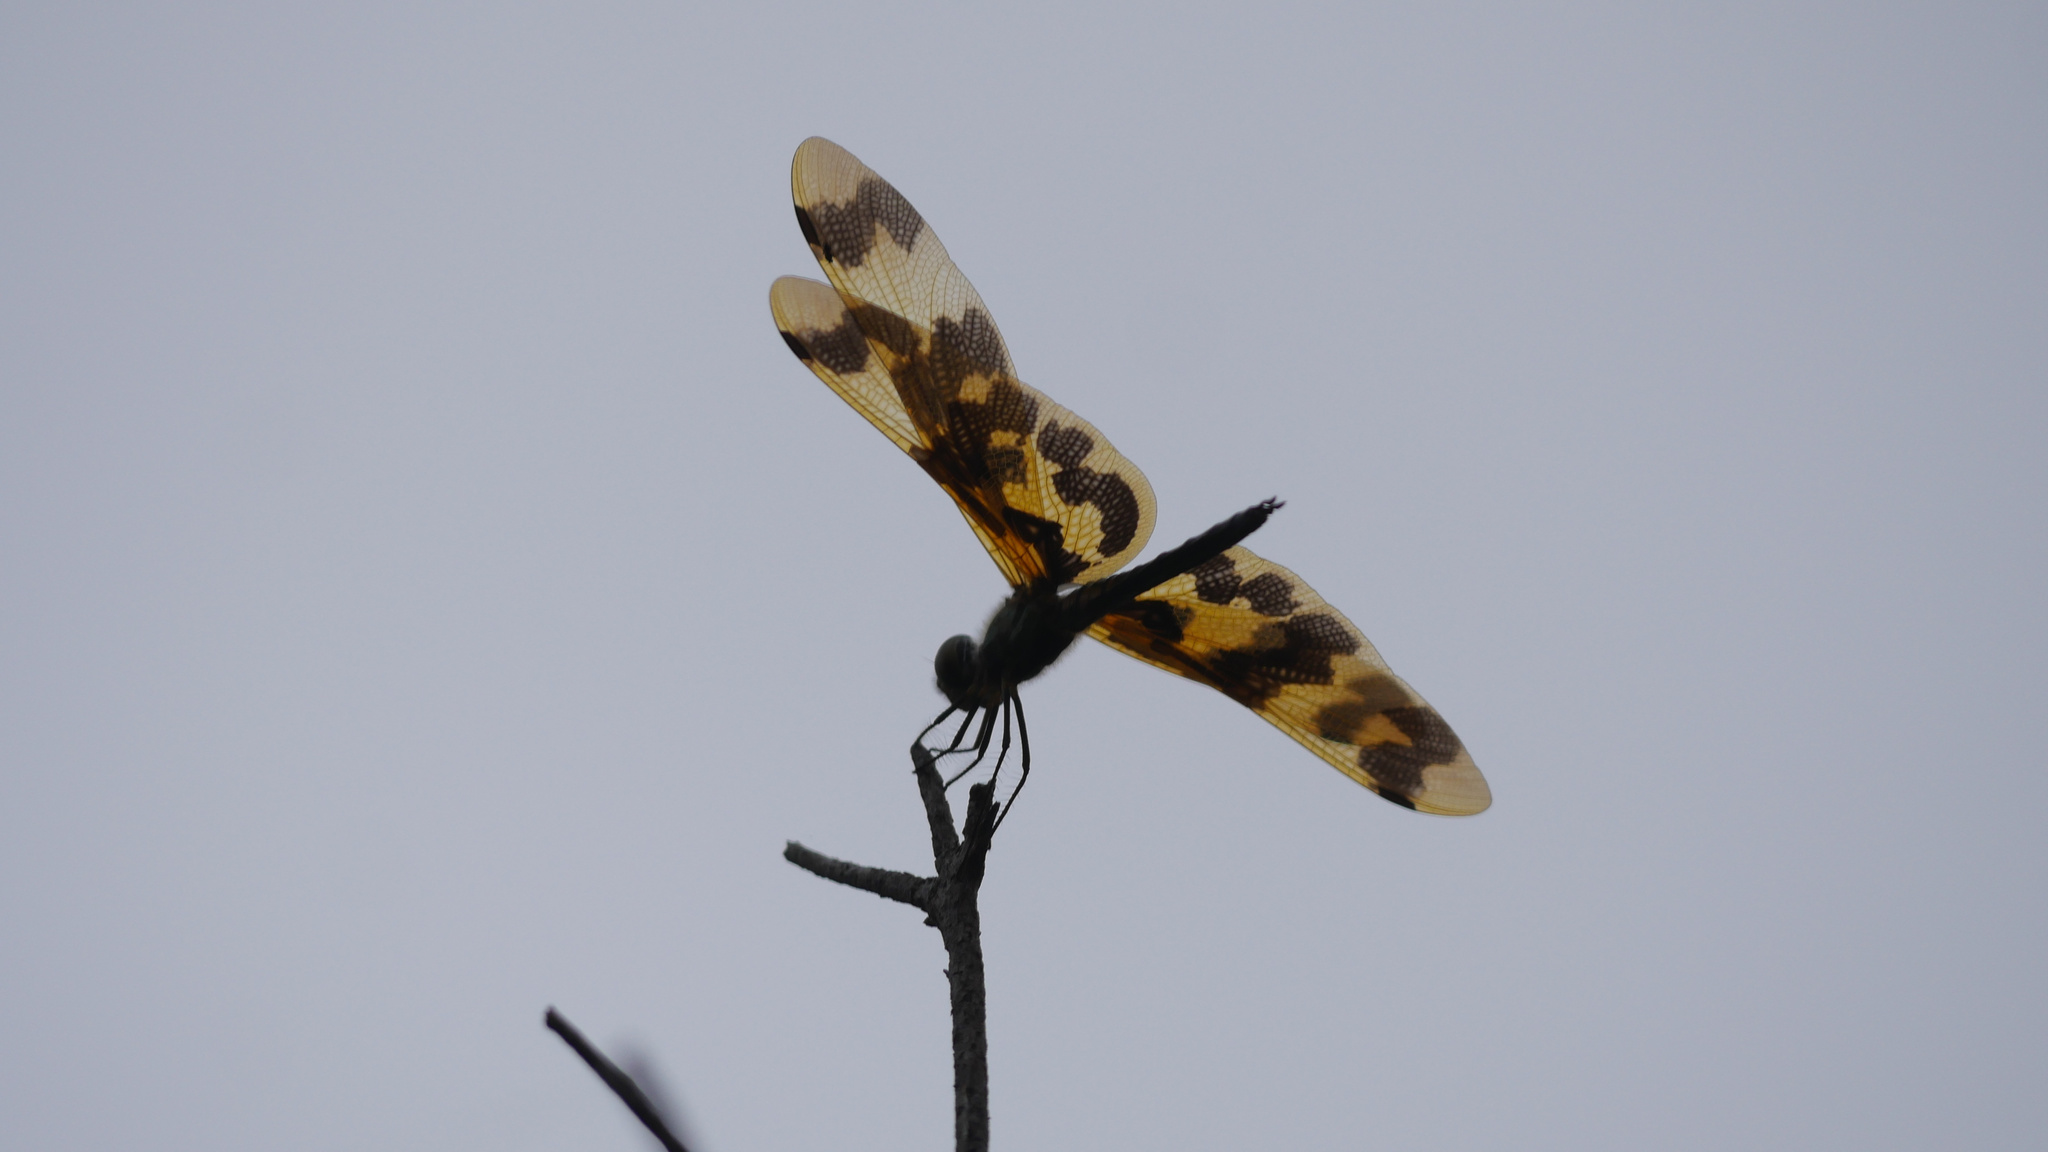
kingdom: Animalia
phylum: Arthropoda
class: Insecta
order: Odonata
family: Libellulidae
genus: Rhyothemis
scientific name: Rhyothemis graphiptera
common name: Graphic flutterer
